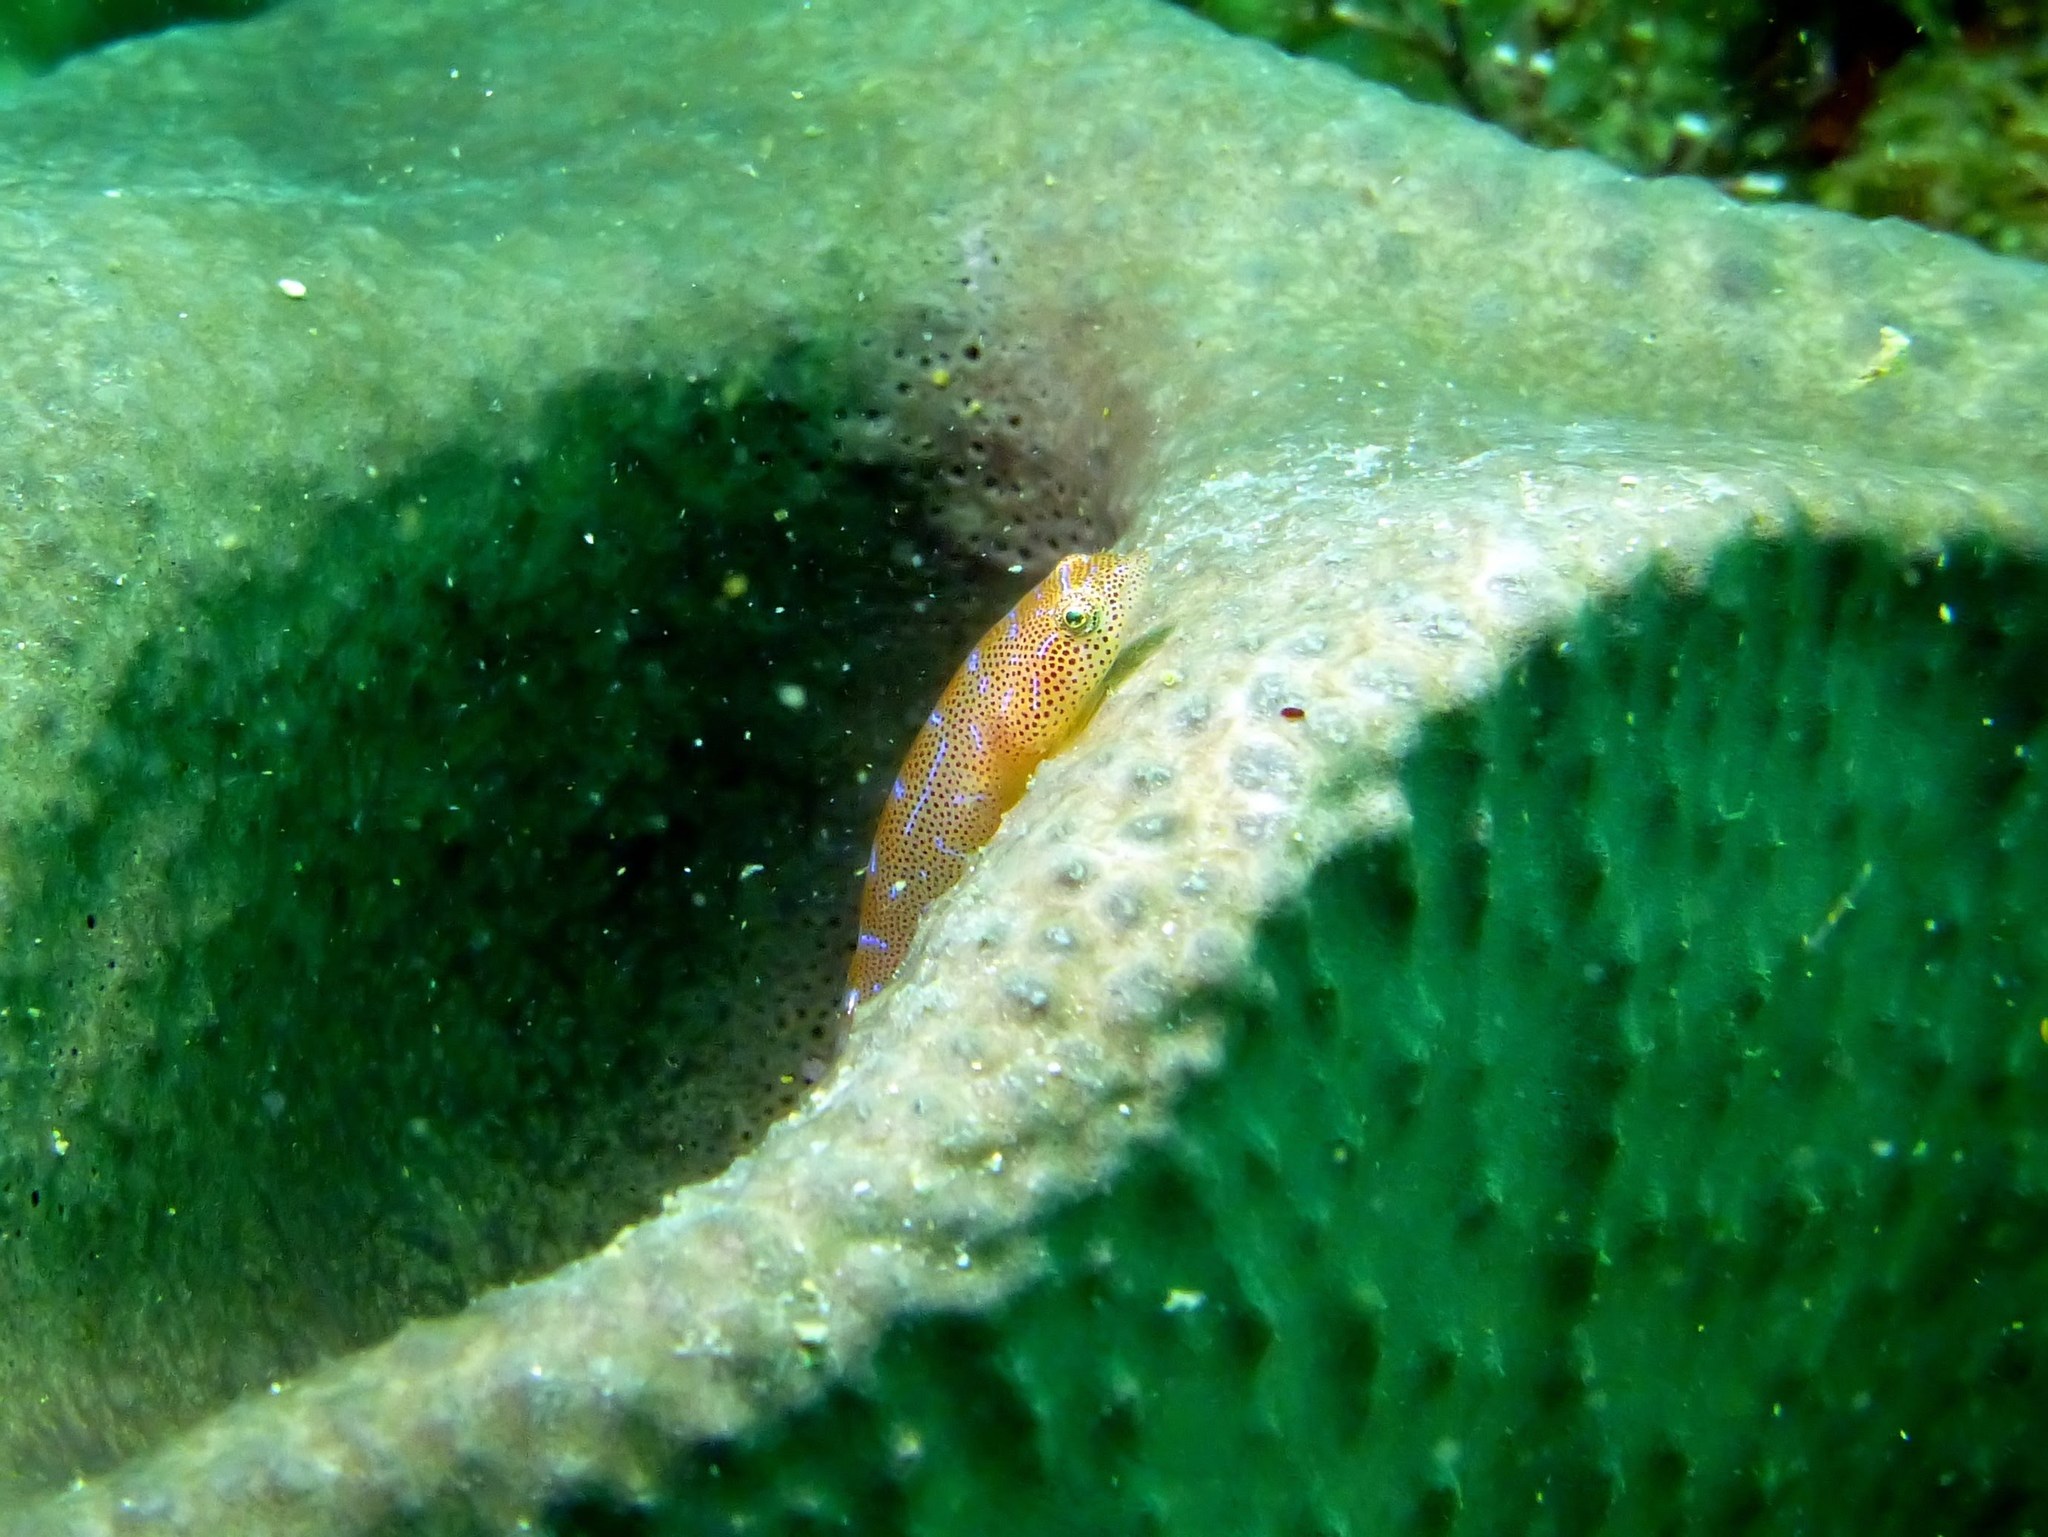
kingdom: Animalia
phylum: Chordata
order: Gobiesociformes
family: Gobiesocidae
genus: Cochleoceps
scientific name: Cochleoceps orientalis
